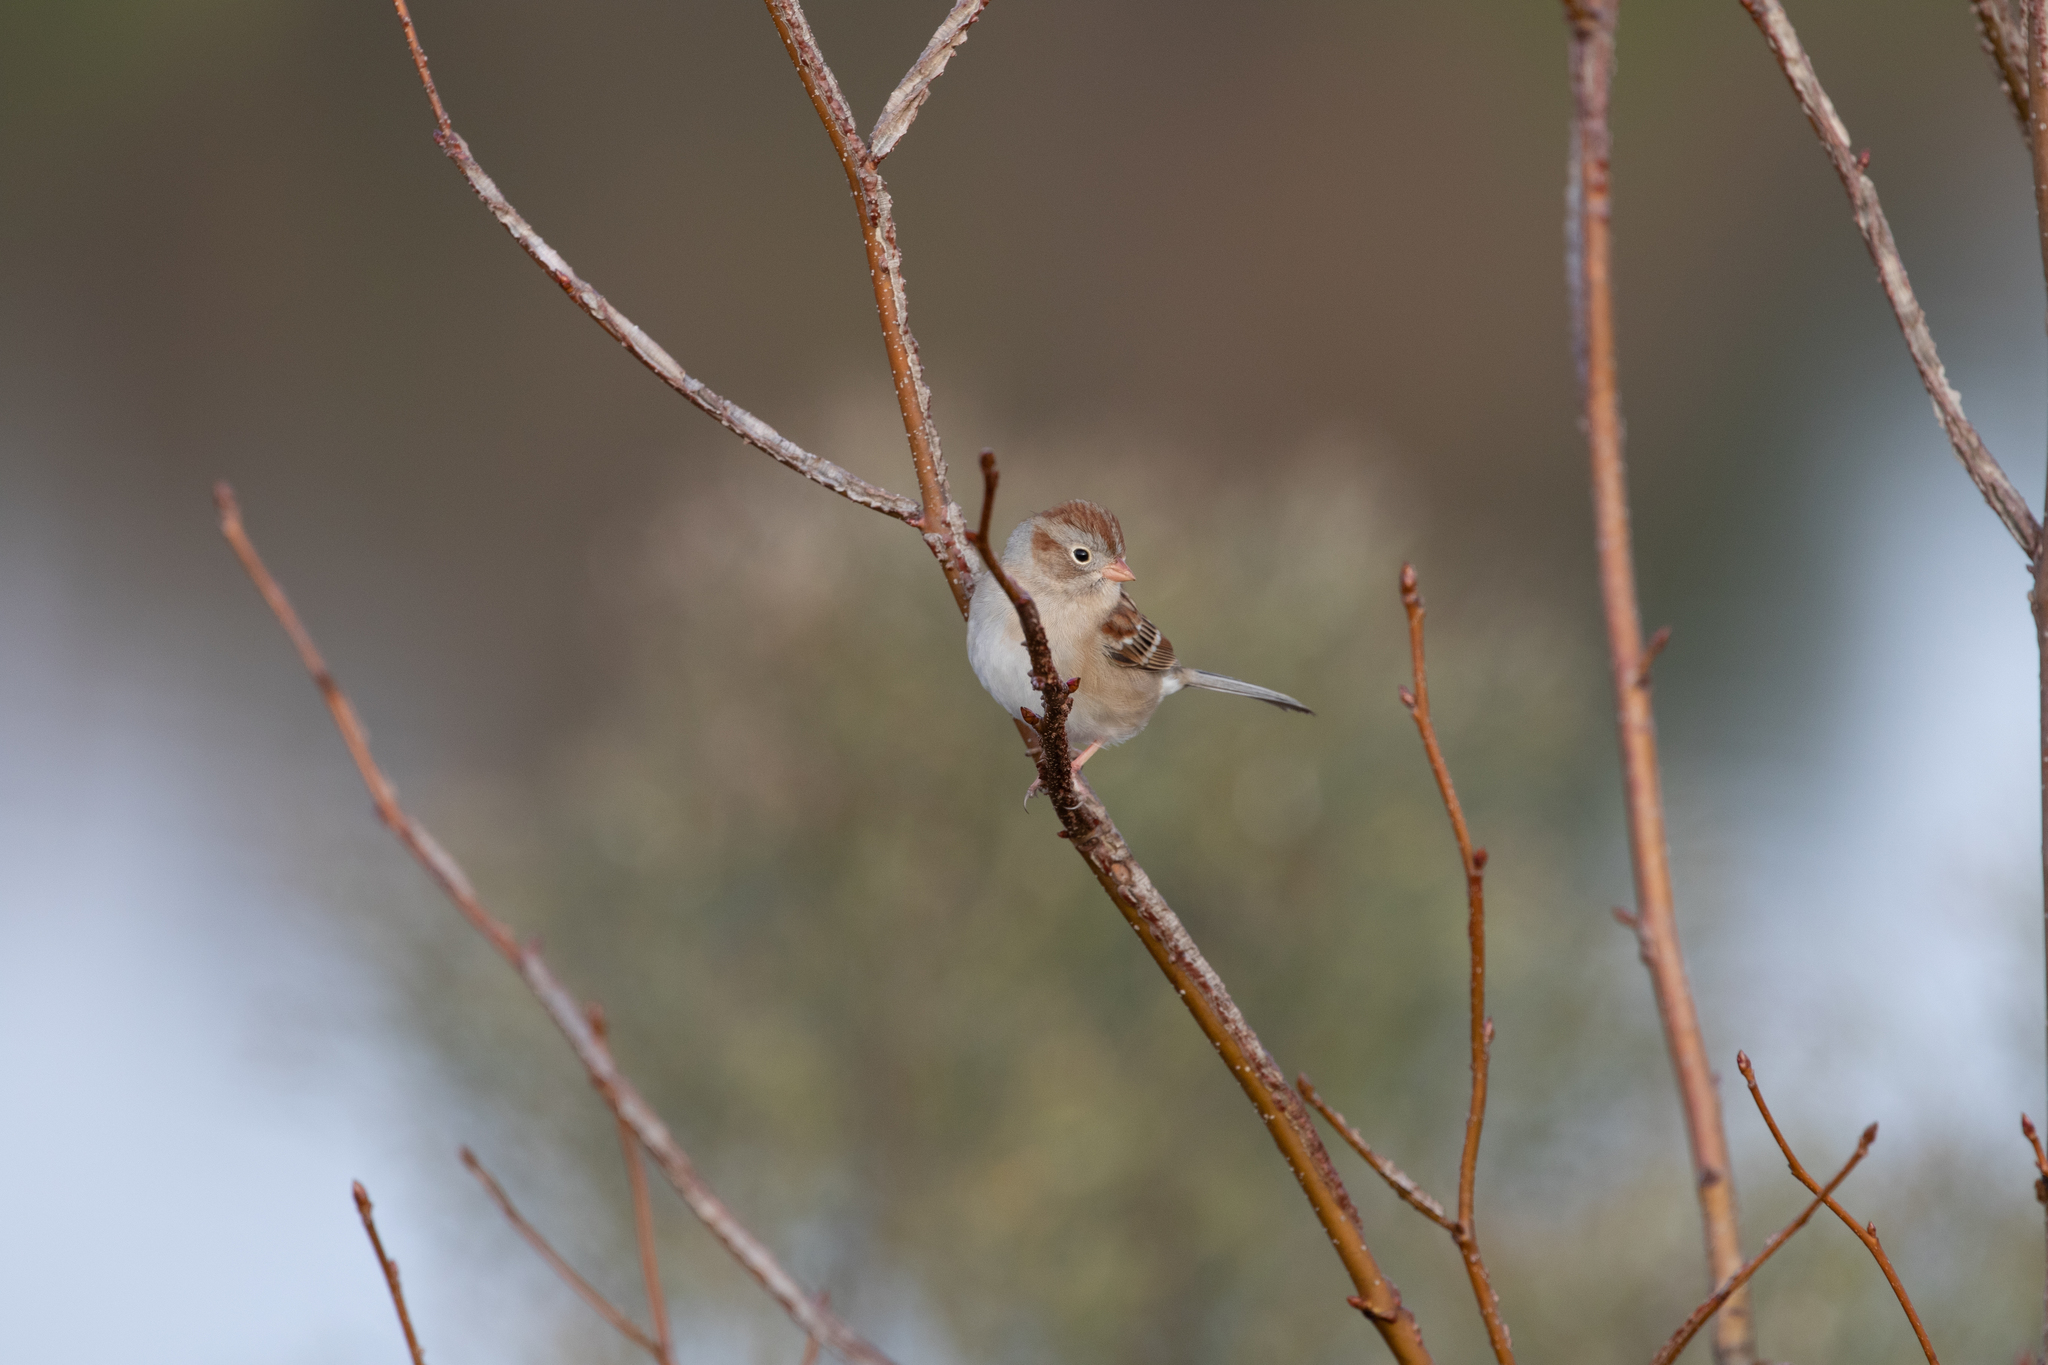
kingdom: Animalia
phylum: Chordata
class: Aves
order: Passeriformes
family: Passerellidae
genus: Spizella
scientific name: Spizella pusilla
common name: Field sparrow
